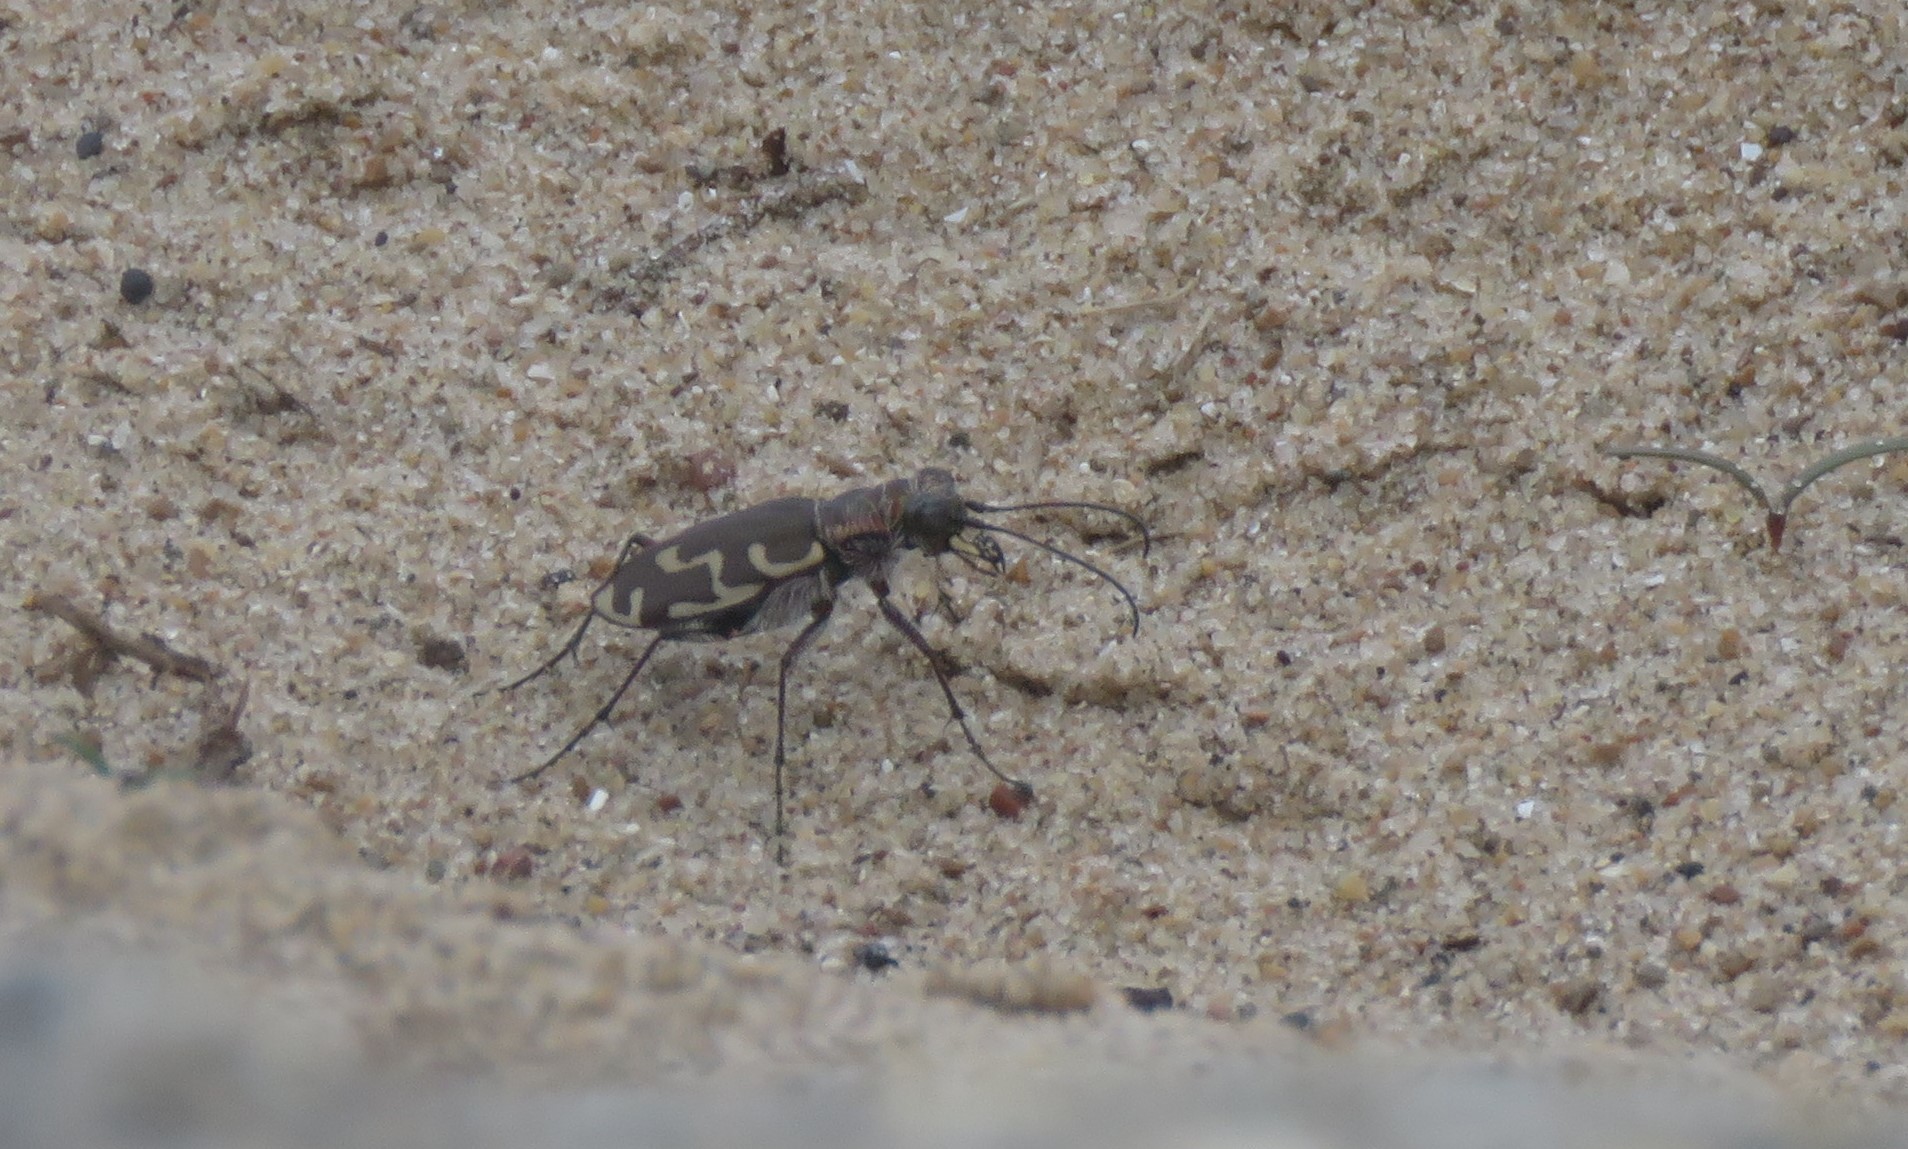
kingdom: Animalia
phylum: Arthropoda
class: Insecta
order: Coleoptera
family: Carabidae
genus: Cicindela
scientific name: Cicindela repanda
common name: Bronzed tiger beetle
